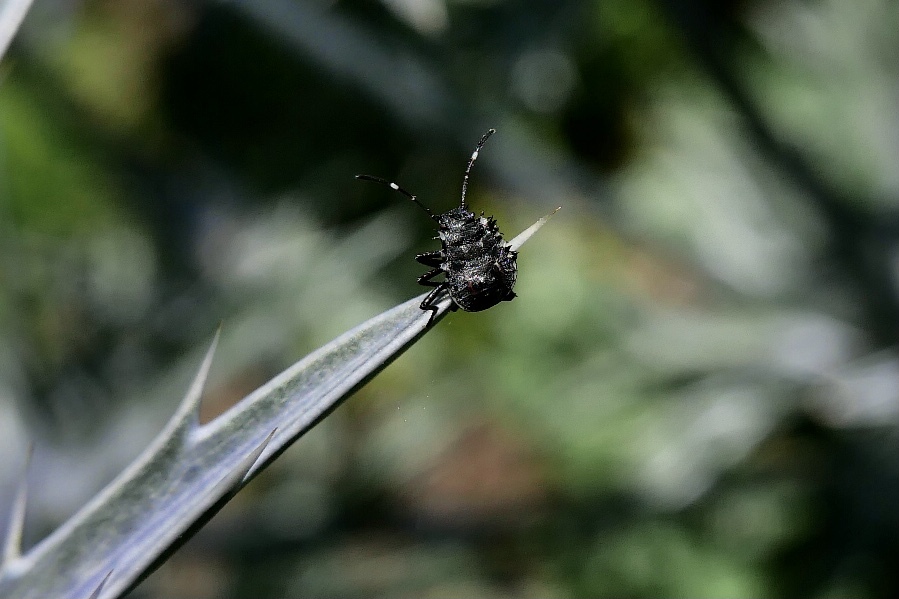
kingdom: Animalia
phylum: Arthropoda
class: Insecta
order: Hemiptera
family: Pentatomidae
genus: Halyomorpha
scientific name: Halyomorpha halys
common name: Brown marmorated stink bug
